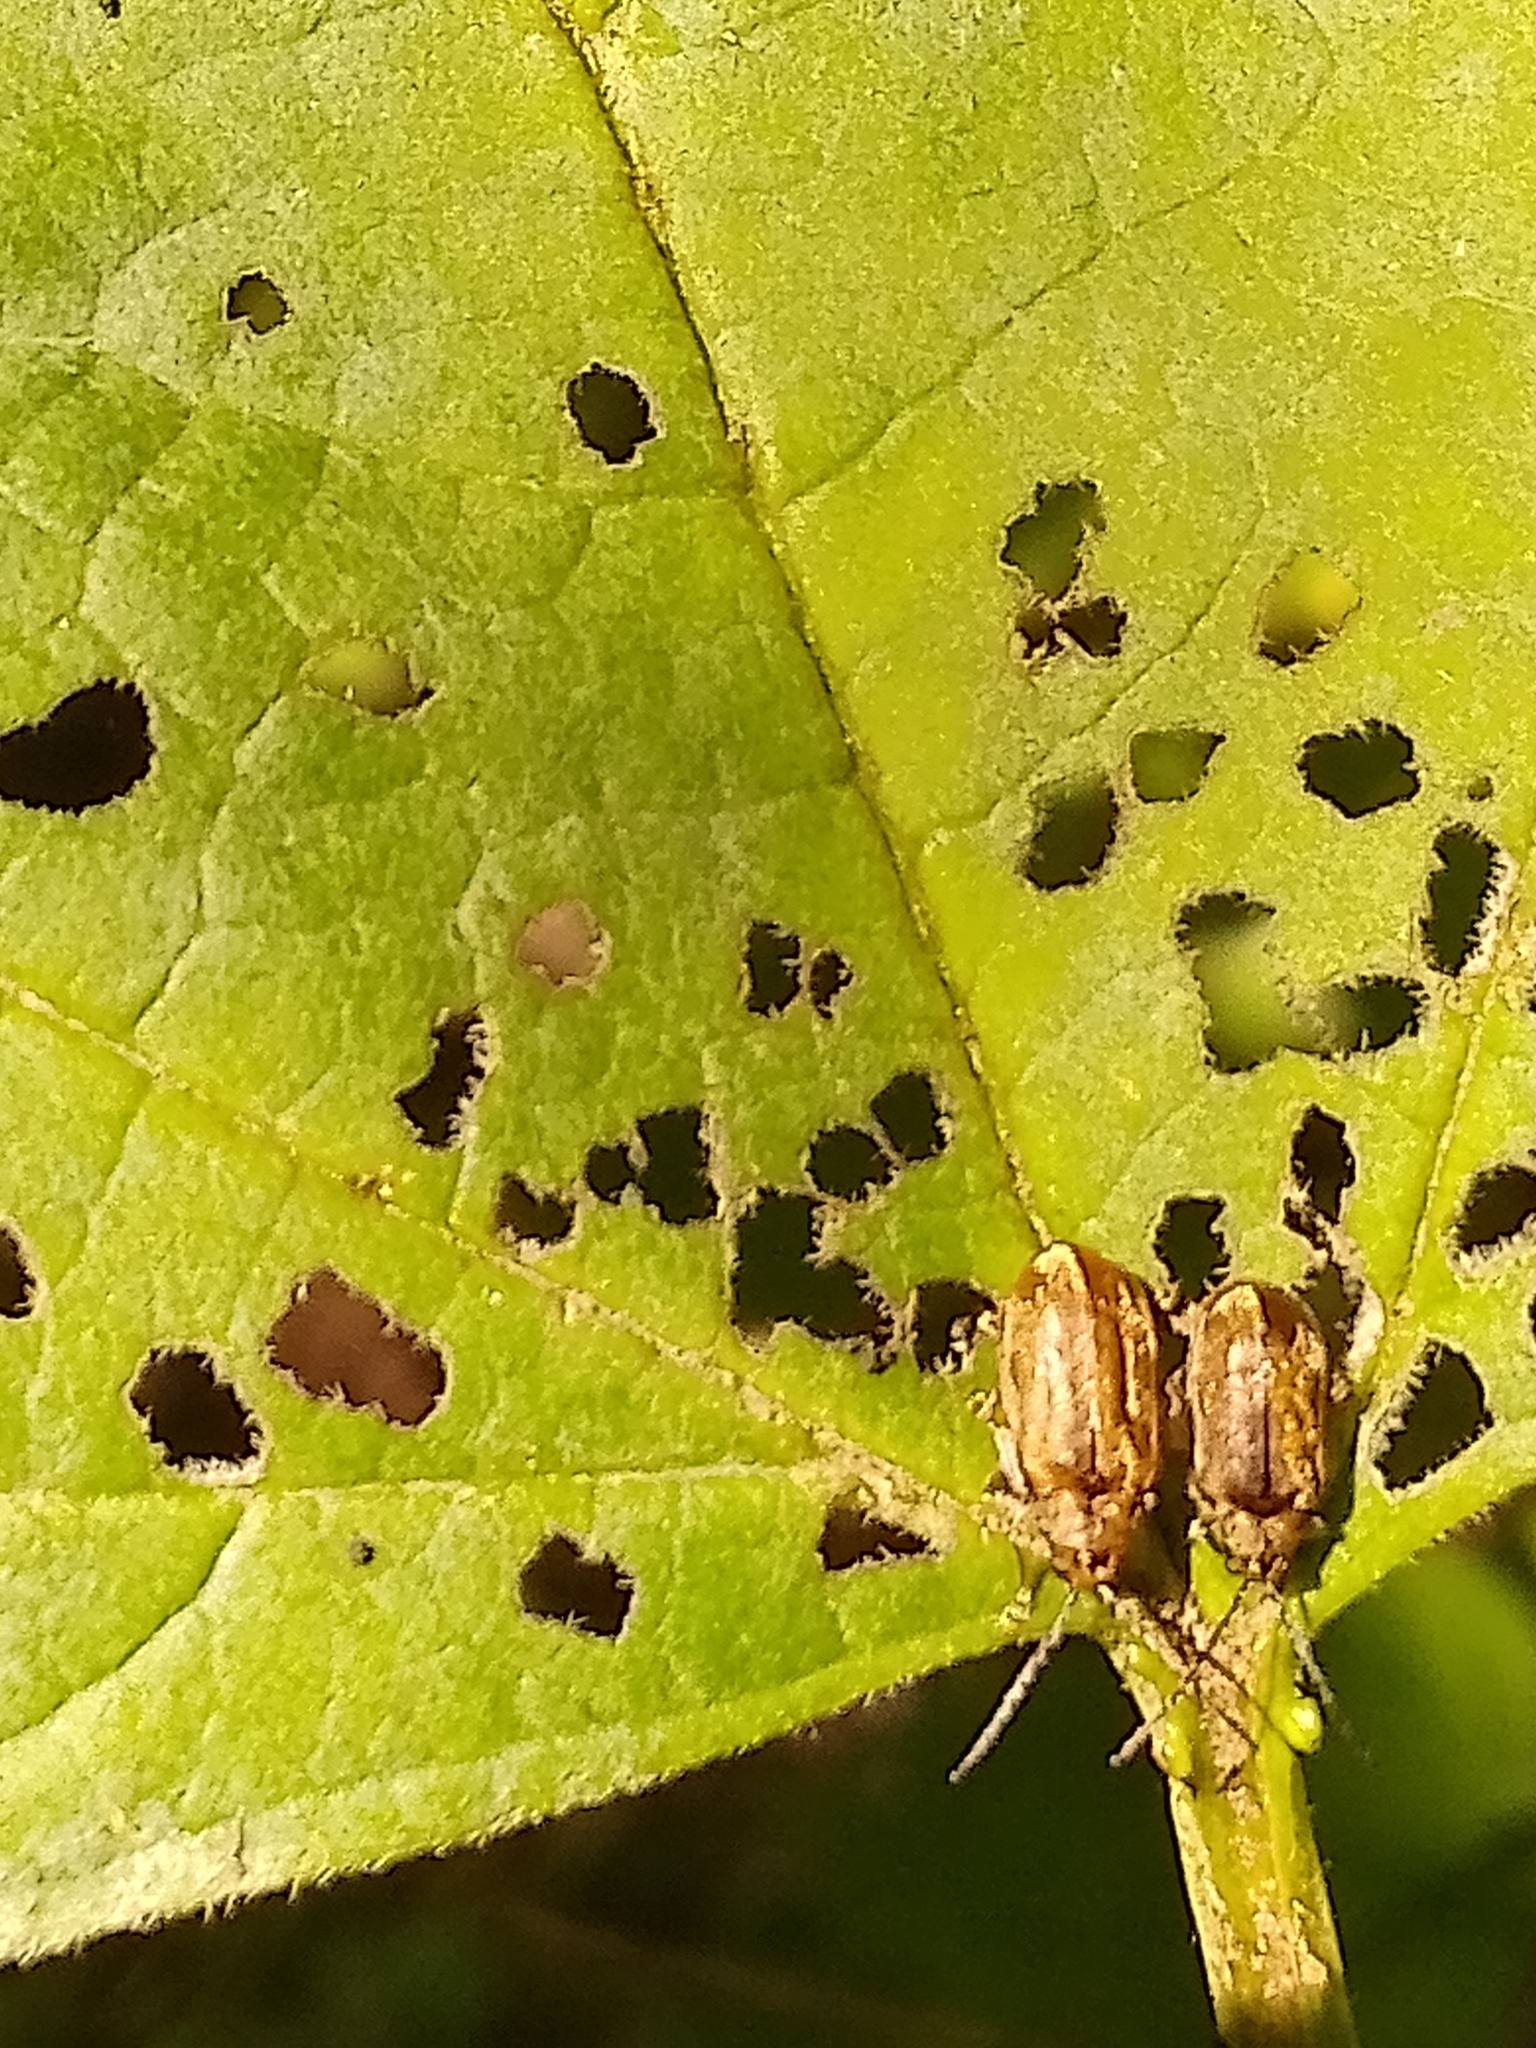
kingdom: Animalia
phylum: Arthropoda
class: Insecta
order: Coleoptera
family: Chrysomelidae
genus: Pyrrhalta
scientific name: Pyrrhalta viburni
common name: Guelder-rose leaf beetle
